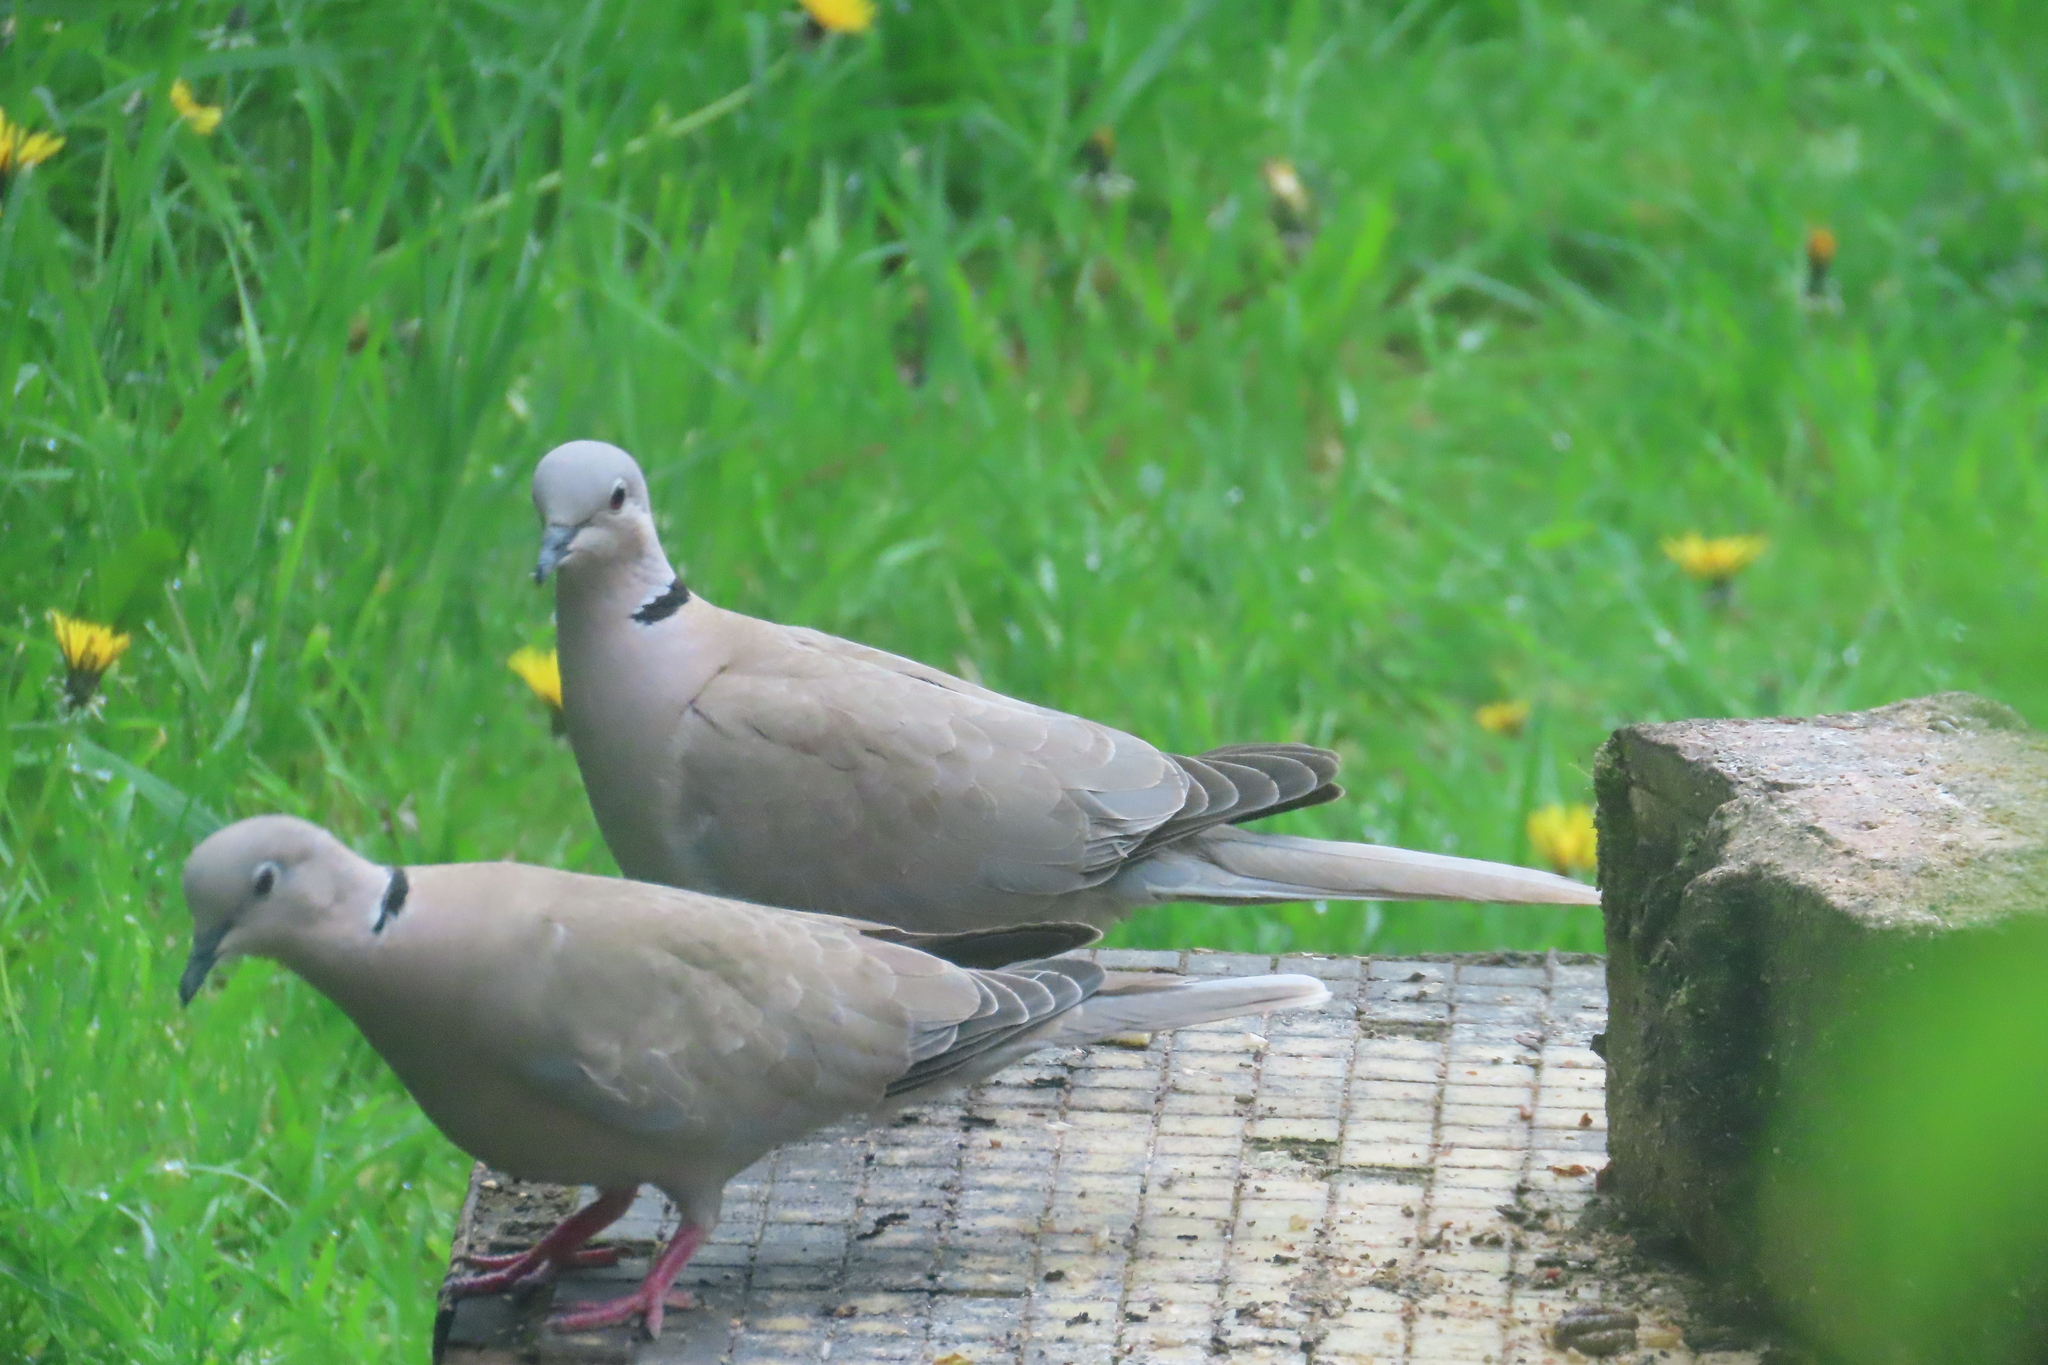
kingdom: Animalia
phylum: Chordata
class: Aves
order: Columbiformes
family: Columbidae
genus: Streptopelia
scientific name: Streptopelia decaocto
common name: Eurasian collared dove
